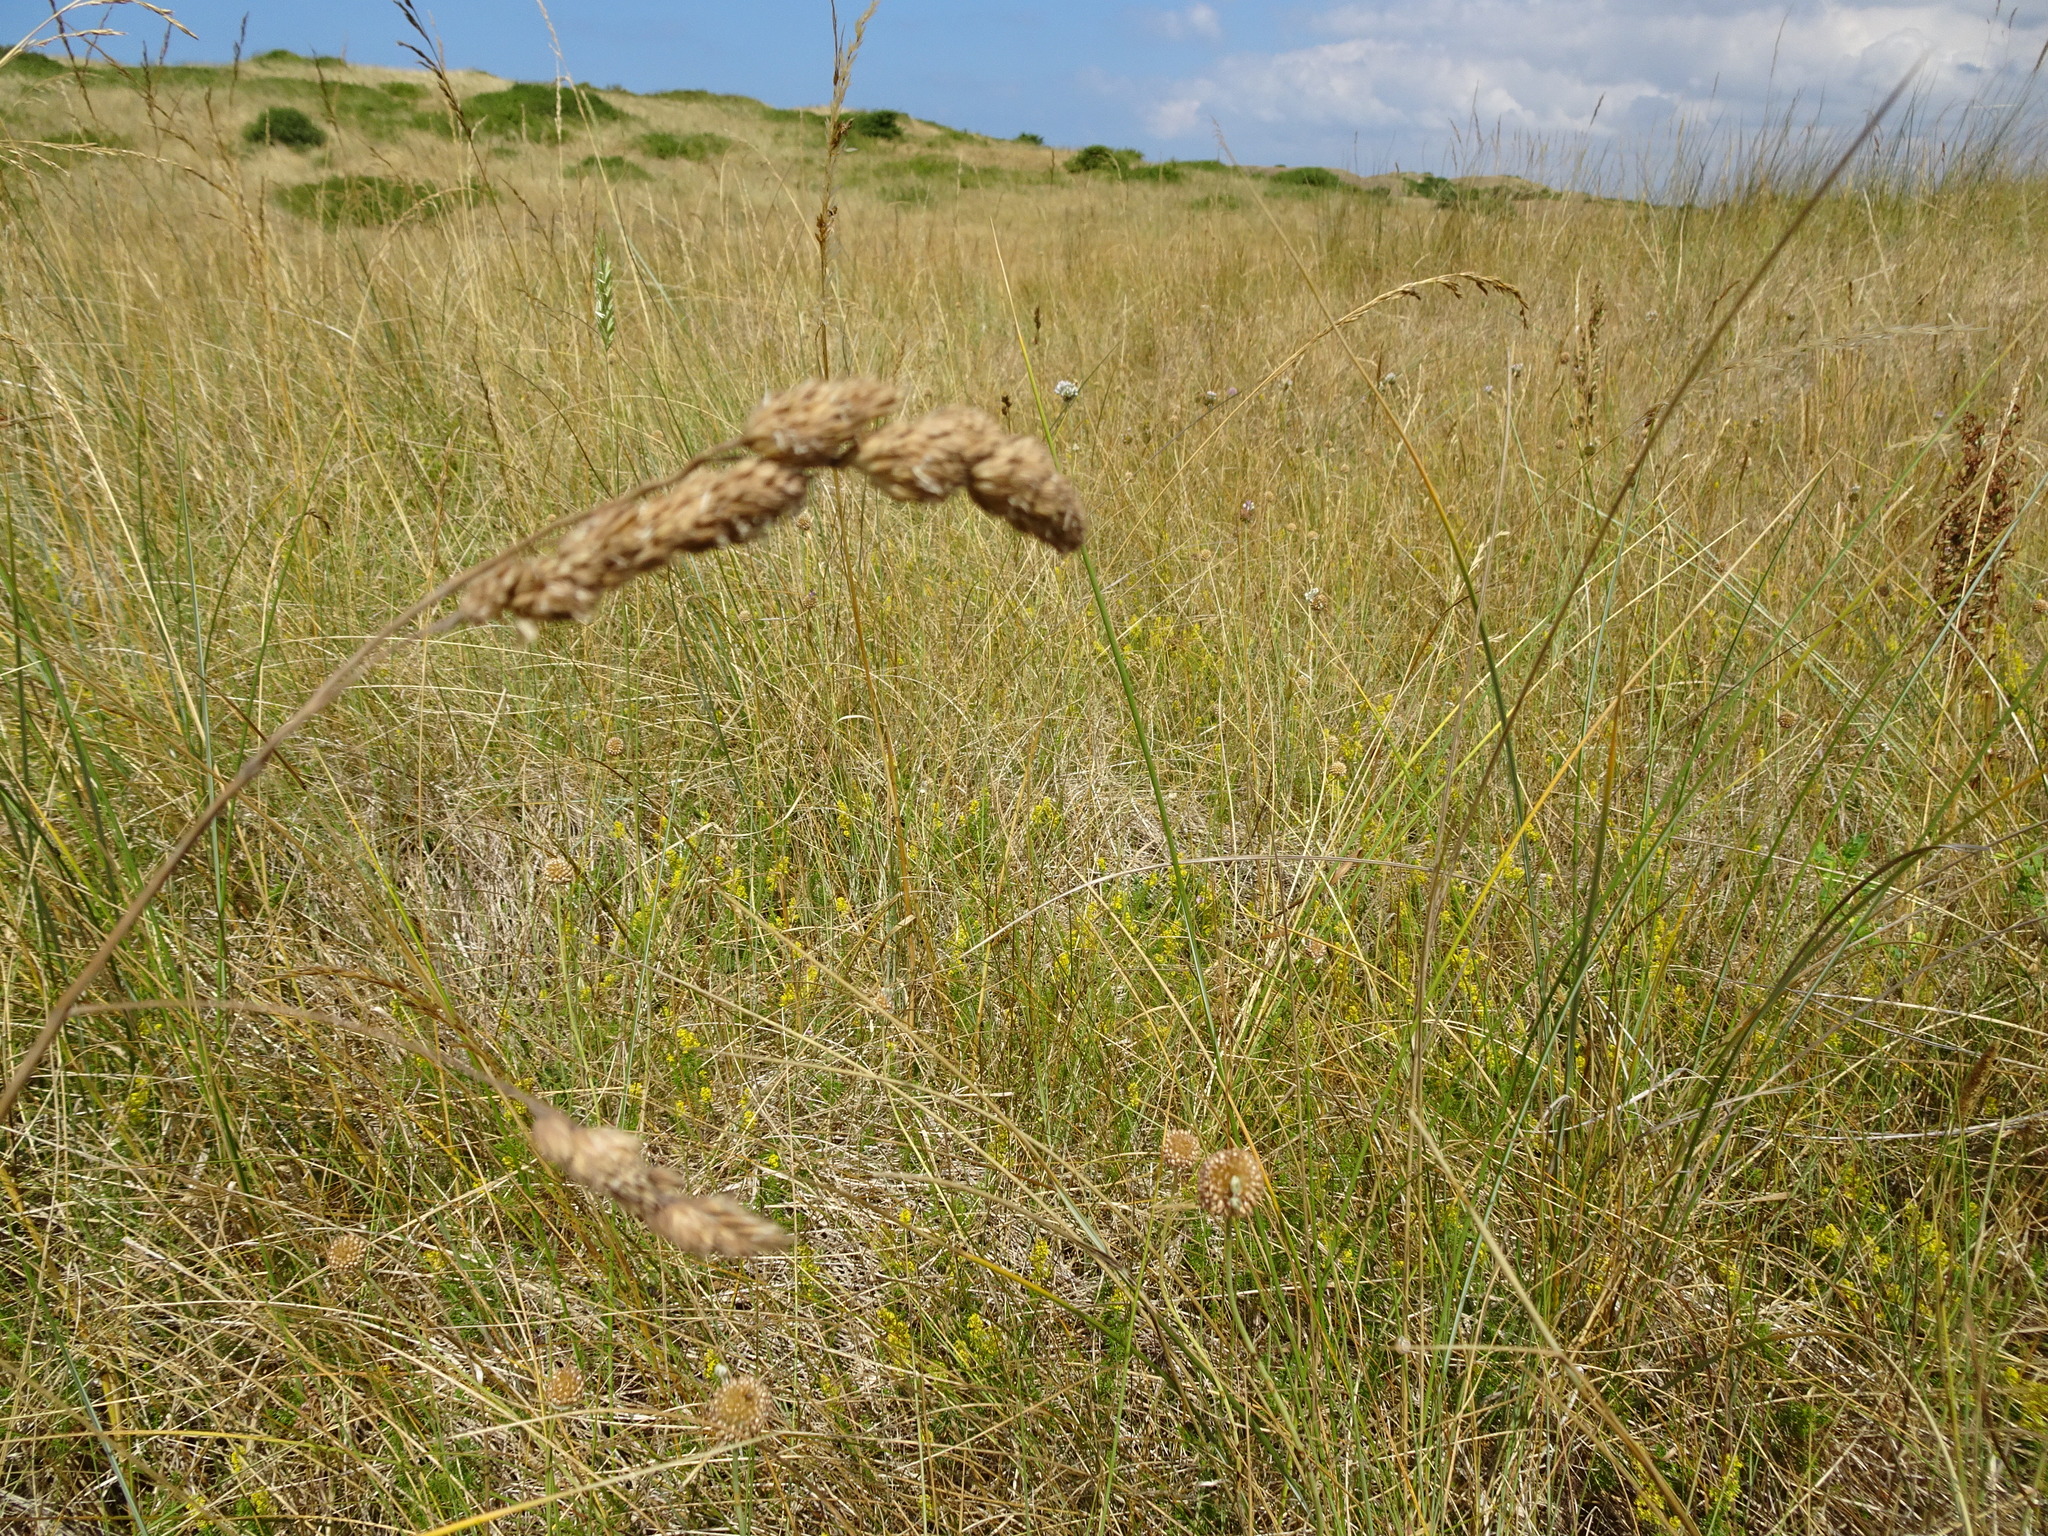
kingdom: Plantae
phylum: Tracheophyta
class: Liliopsida
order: Poales
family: Poaceae
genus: Dactylis
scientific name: Dactylis glomerata
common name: Orchardgrass
